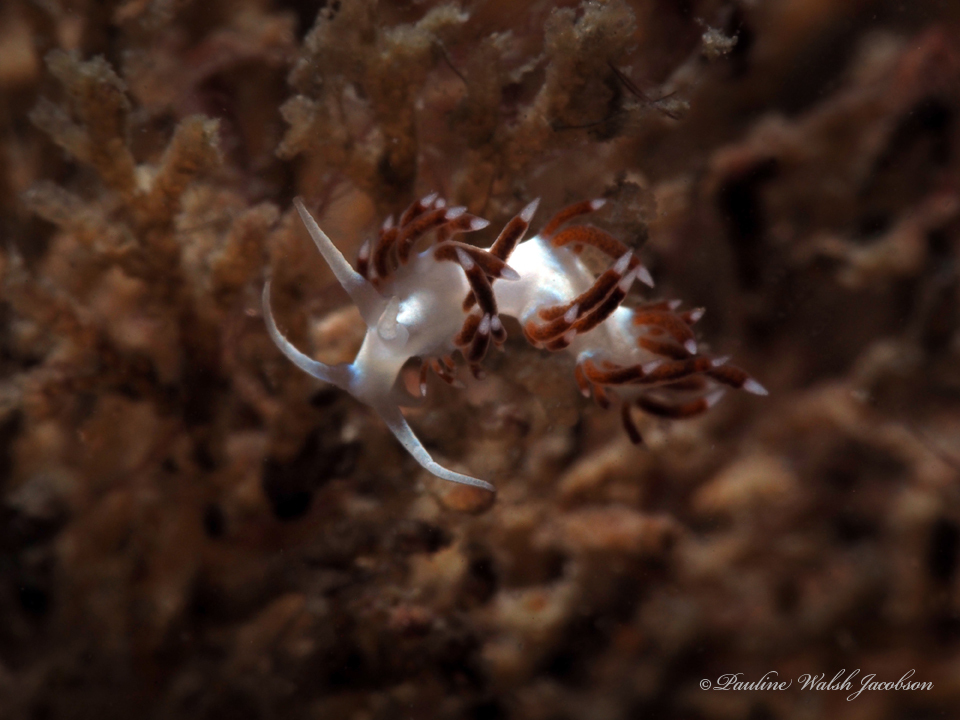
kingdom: Animalia
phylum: Mollusca
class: Gastropoda
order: Nudibranchia
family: Flabellinidae
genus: Flabellina
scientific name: Flabellina dushia
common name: Dushia flabellina
